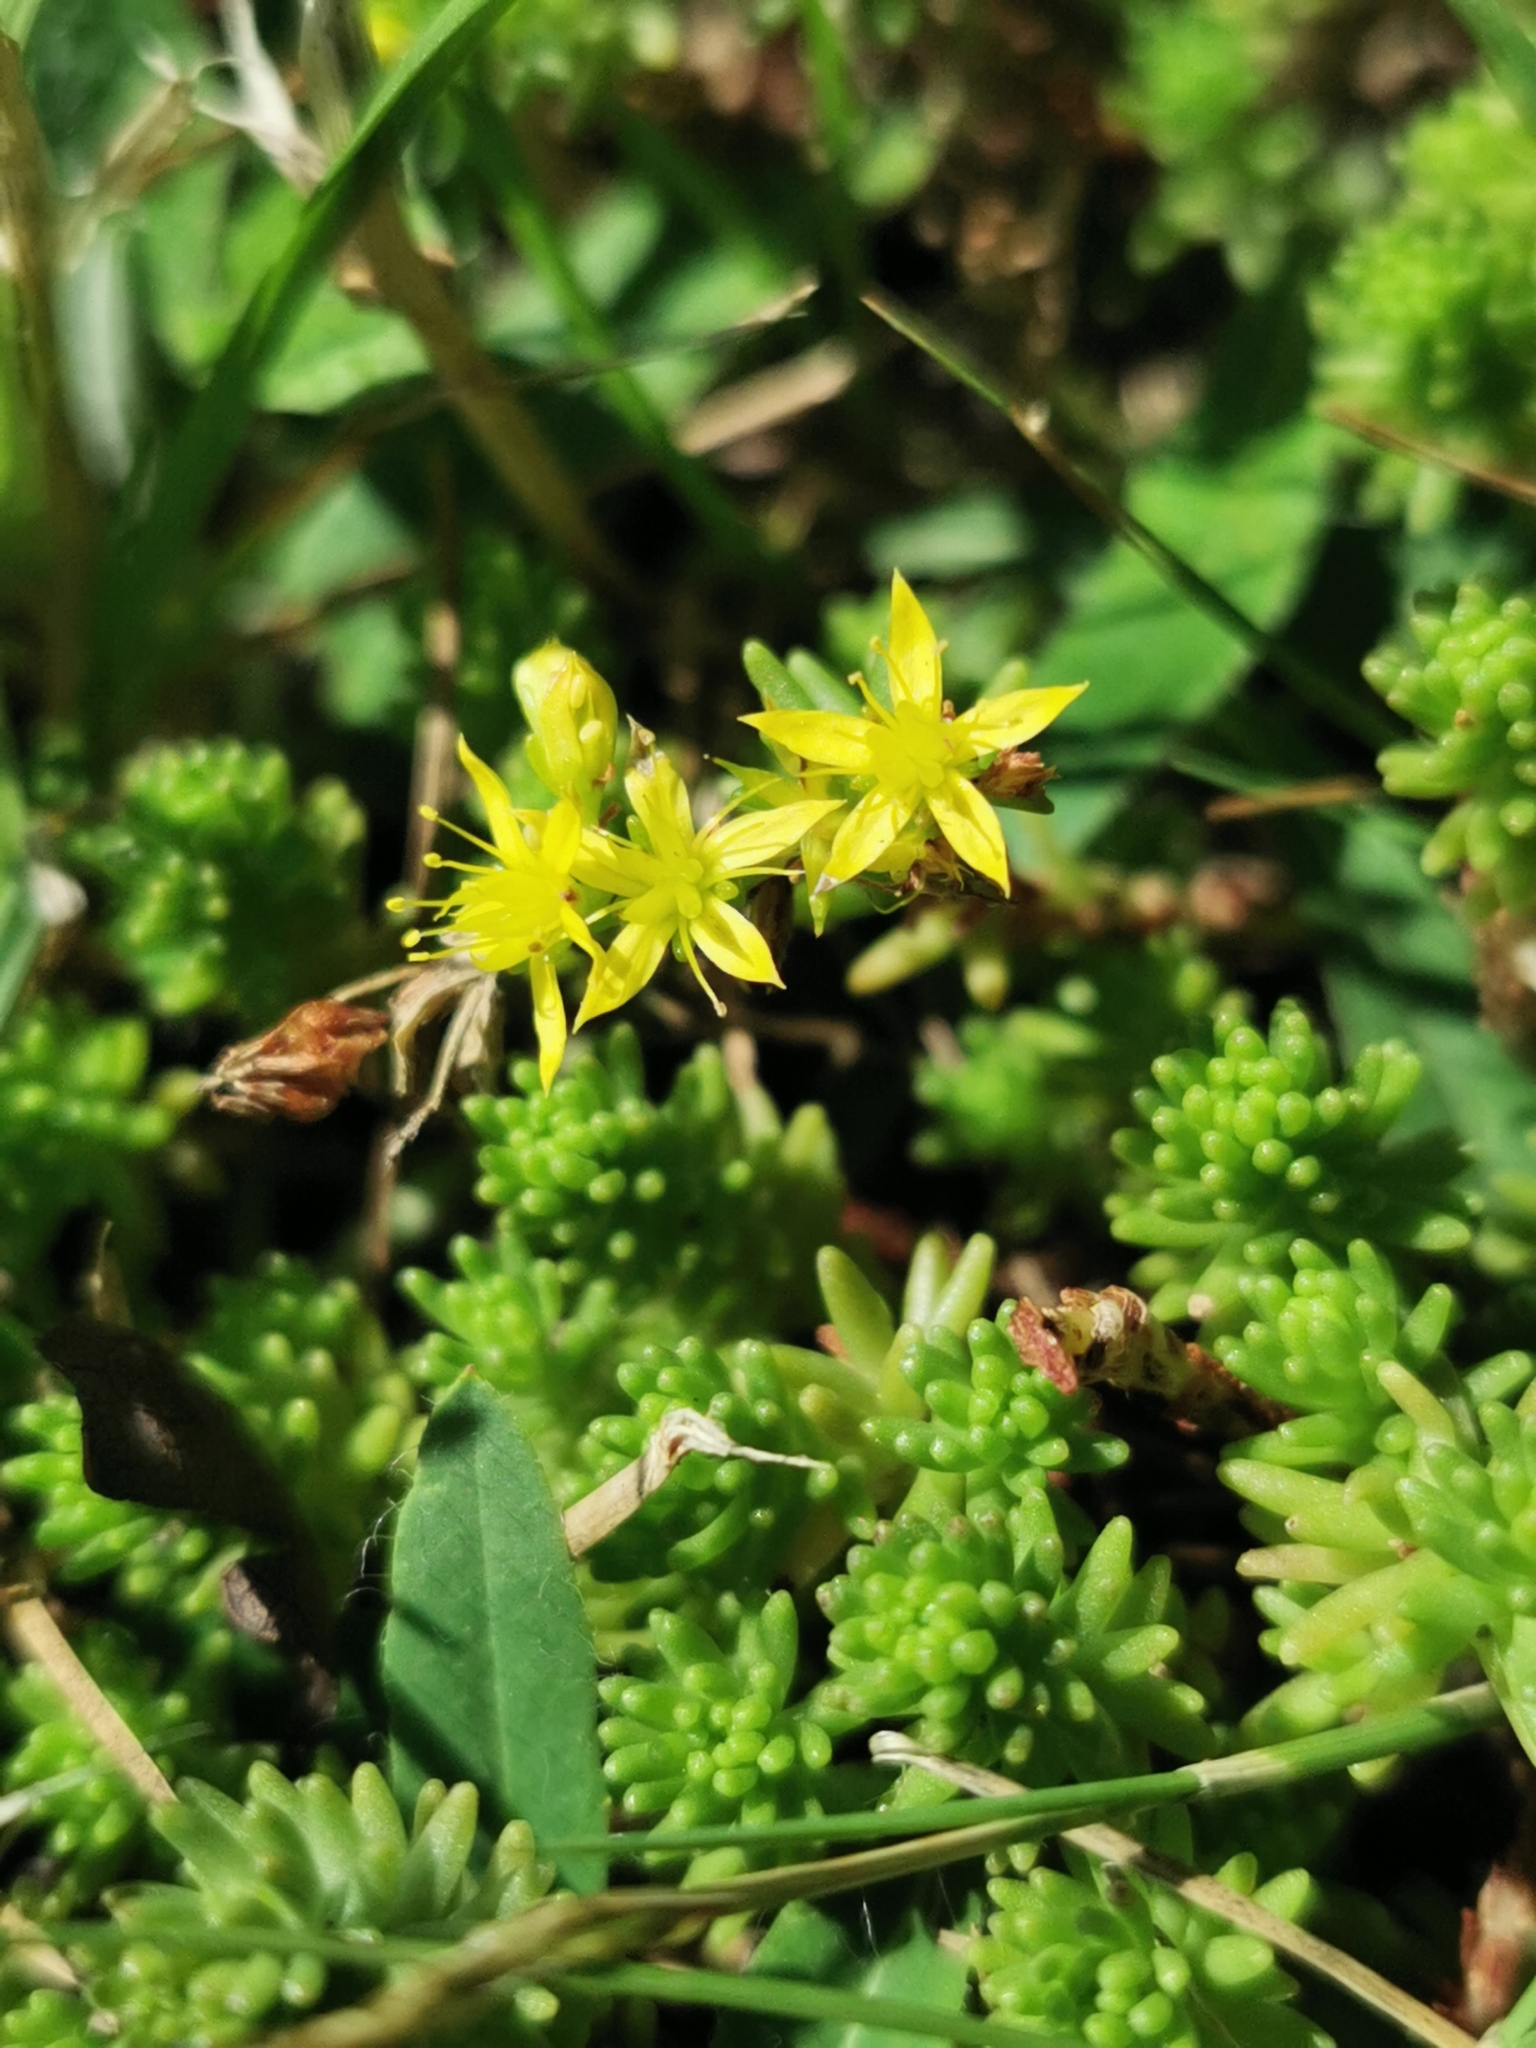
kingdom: Plantae
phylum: Tracheophyta
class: Magnoliopsida
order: Saxifragales
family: Crassulaceae
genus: Sedum
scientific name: Sedum sexangulare
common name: Tasteless stonecrop
